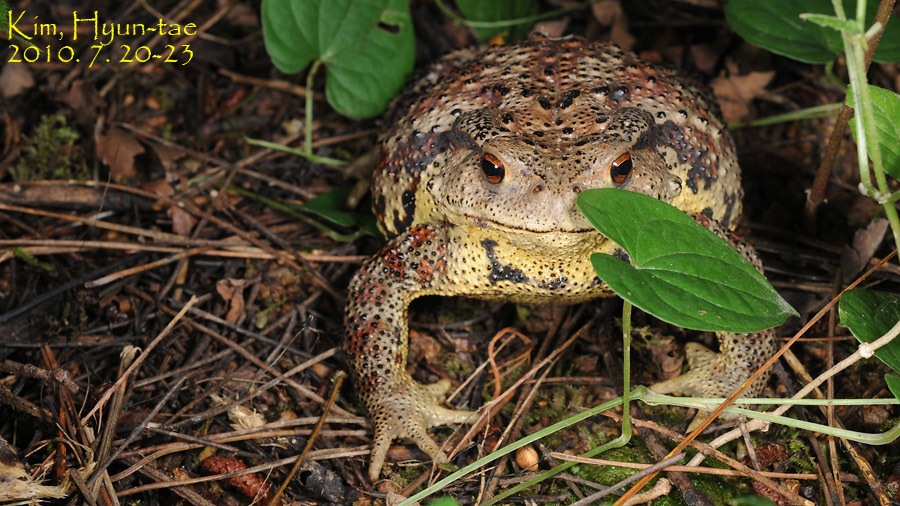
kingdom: Animalia
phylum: Chordata
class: Amphibia
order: Anura
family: Bufonidae
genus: Bufo
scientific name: Bufo gargarizans
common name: Asiatic toad
